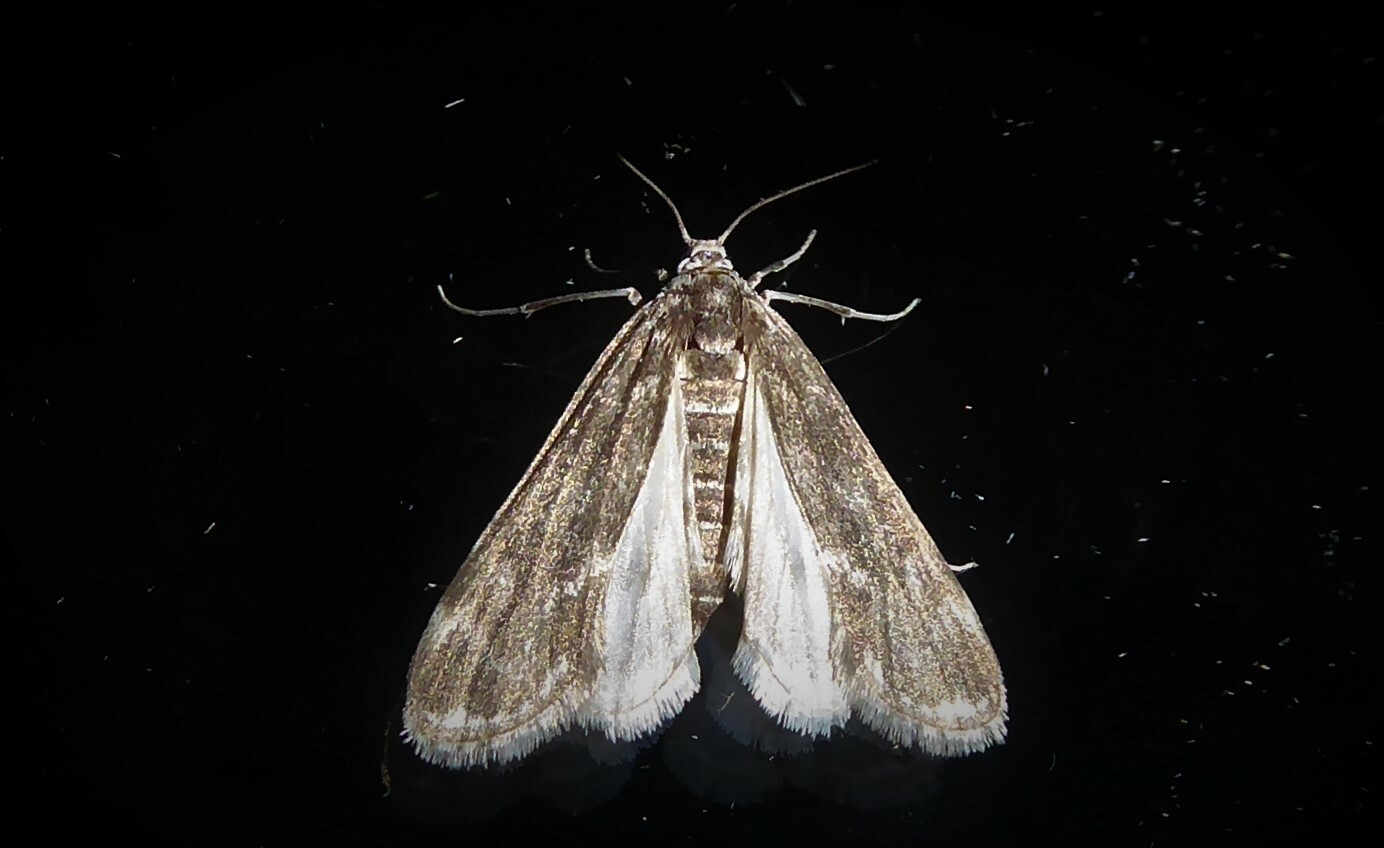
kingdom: Animalia
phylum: Arthropoda
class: Insecta
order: Lepidoptera
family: Crambidae
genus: Hygraula
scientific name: Hygraula nitens
